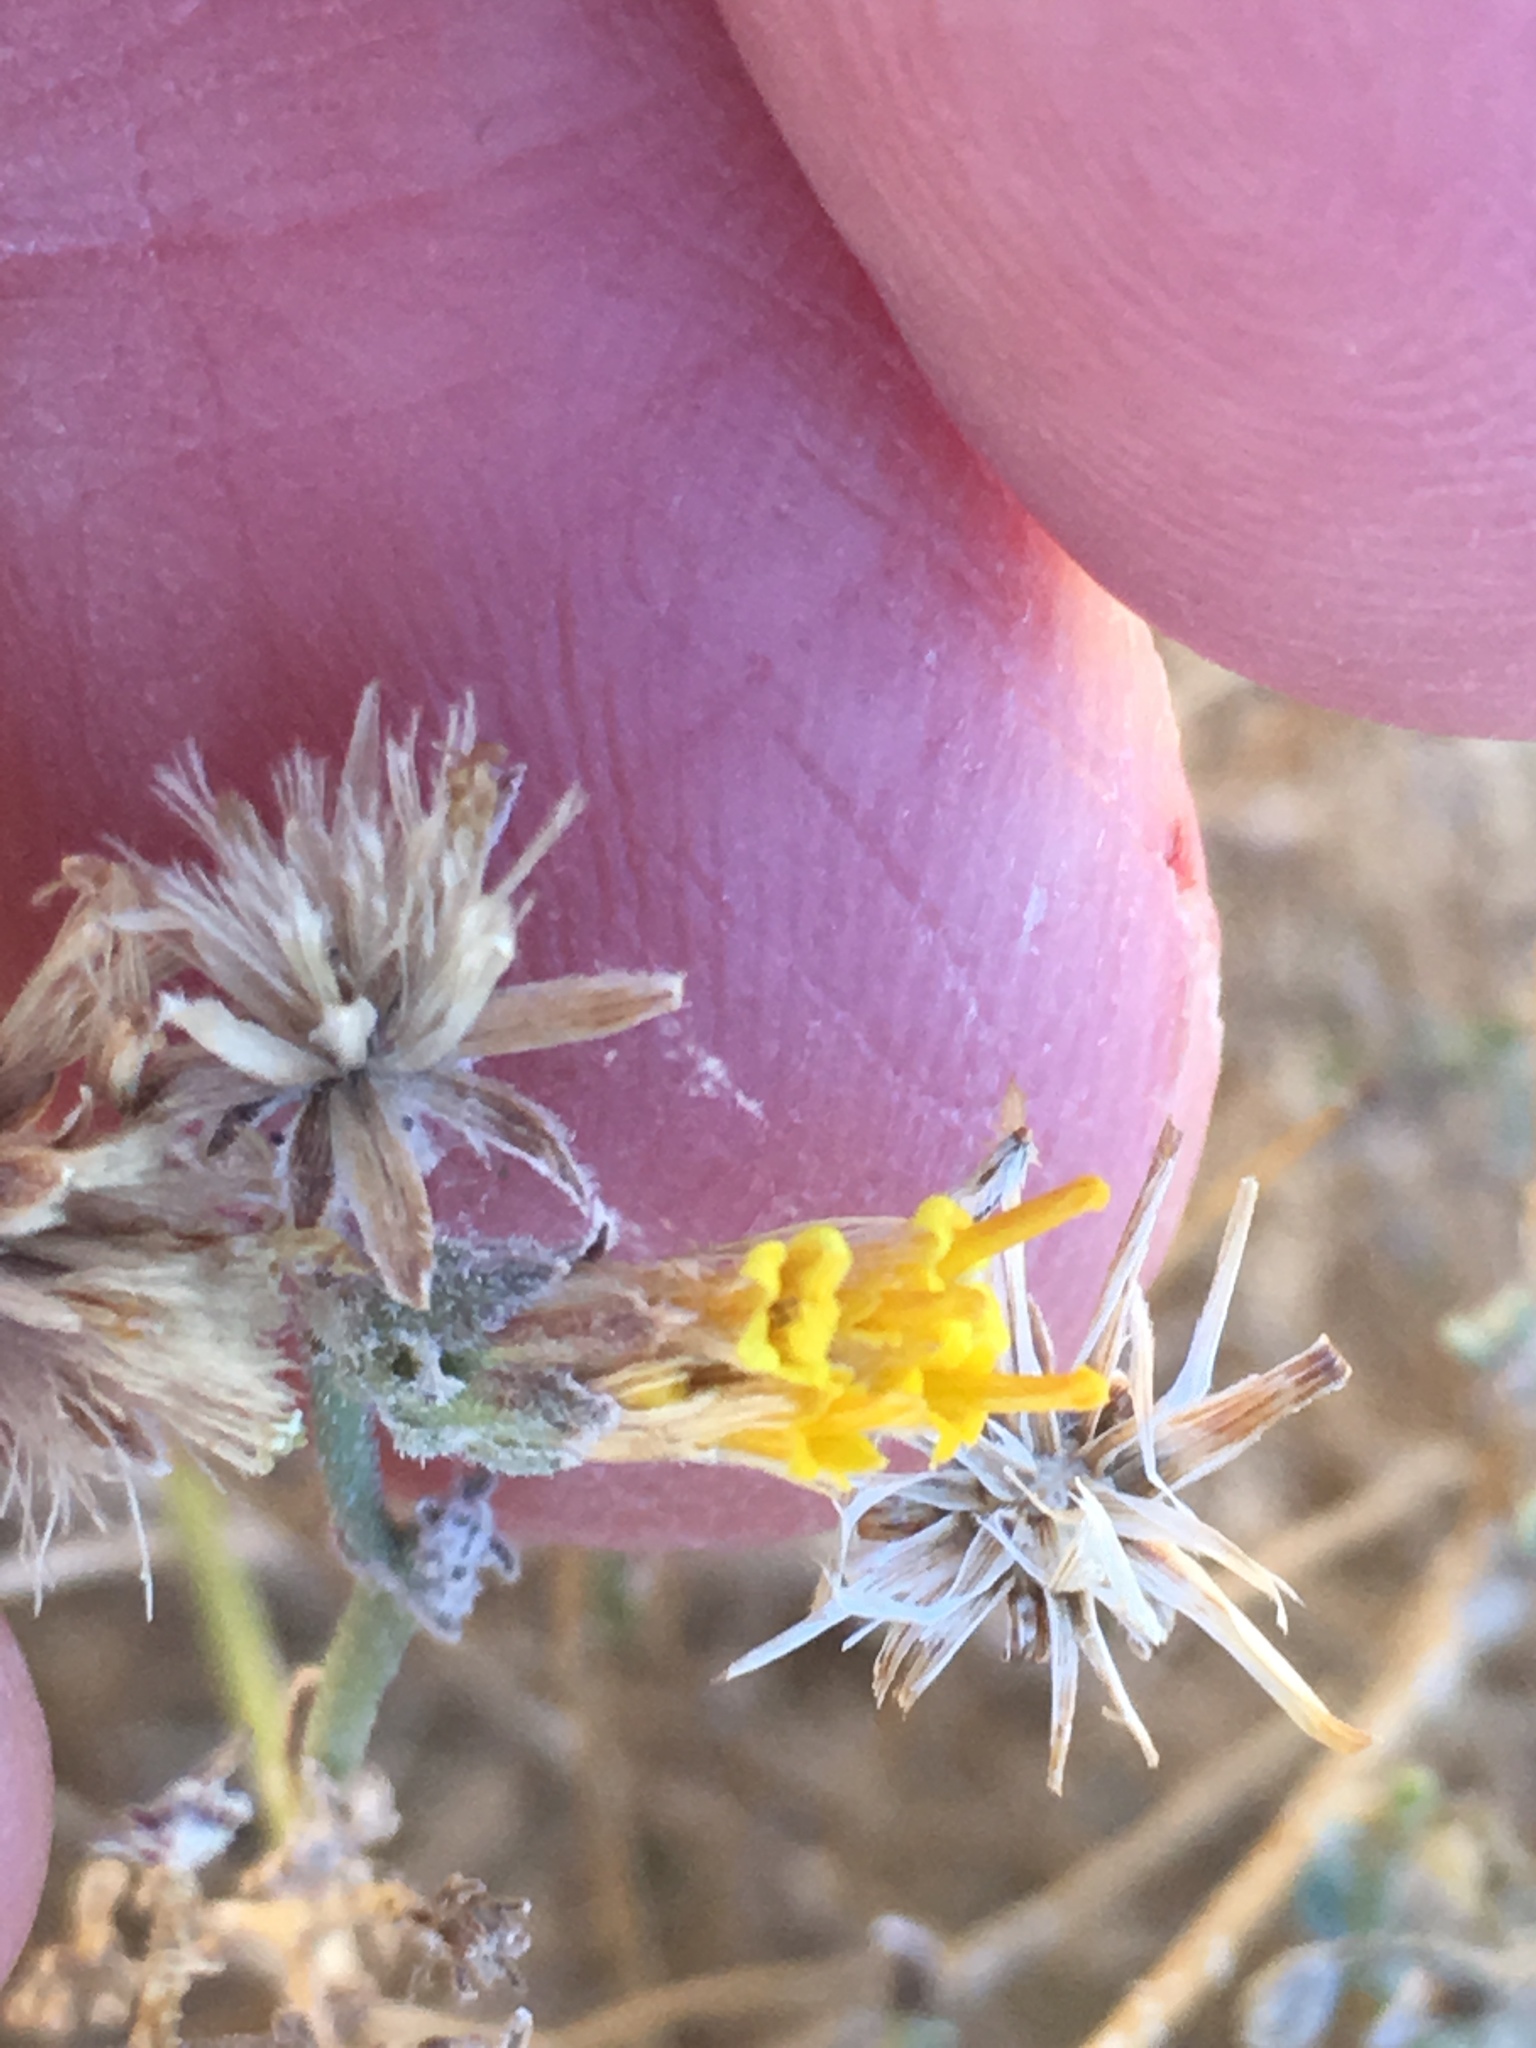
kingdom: Plantae
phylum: Tracheophyta
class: Magnoliopsida
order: Asterales
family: Asteraceae
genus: Bebbia
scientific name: Bebbia juncea
